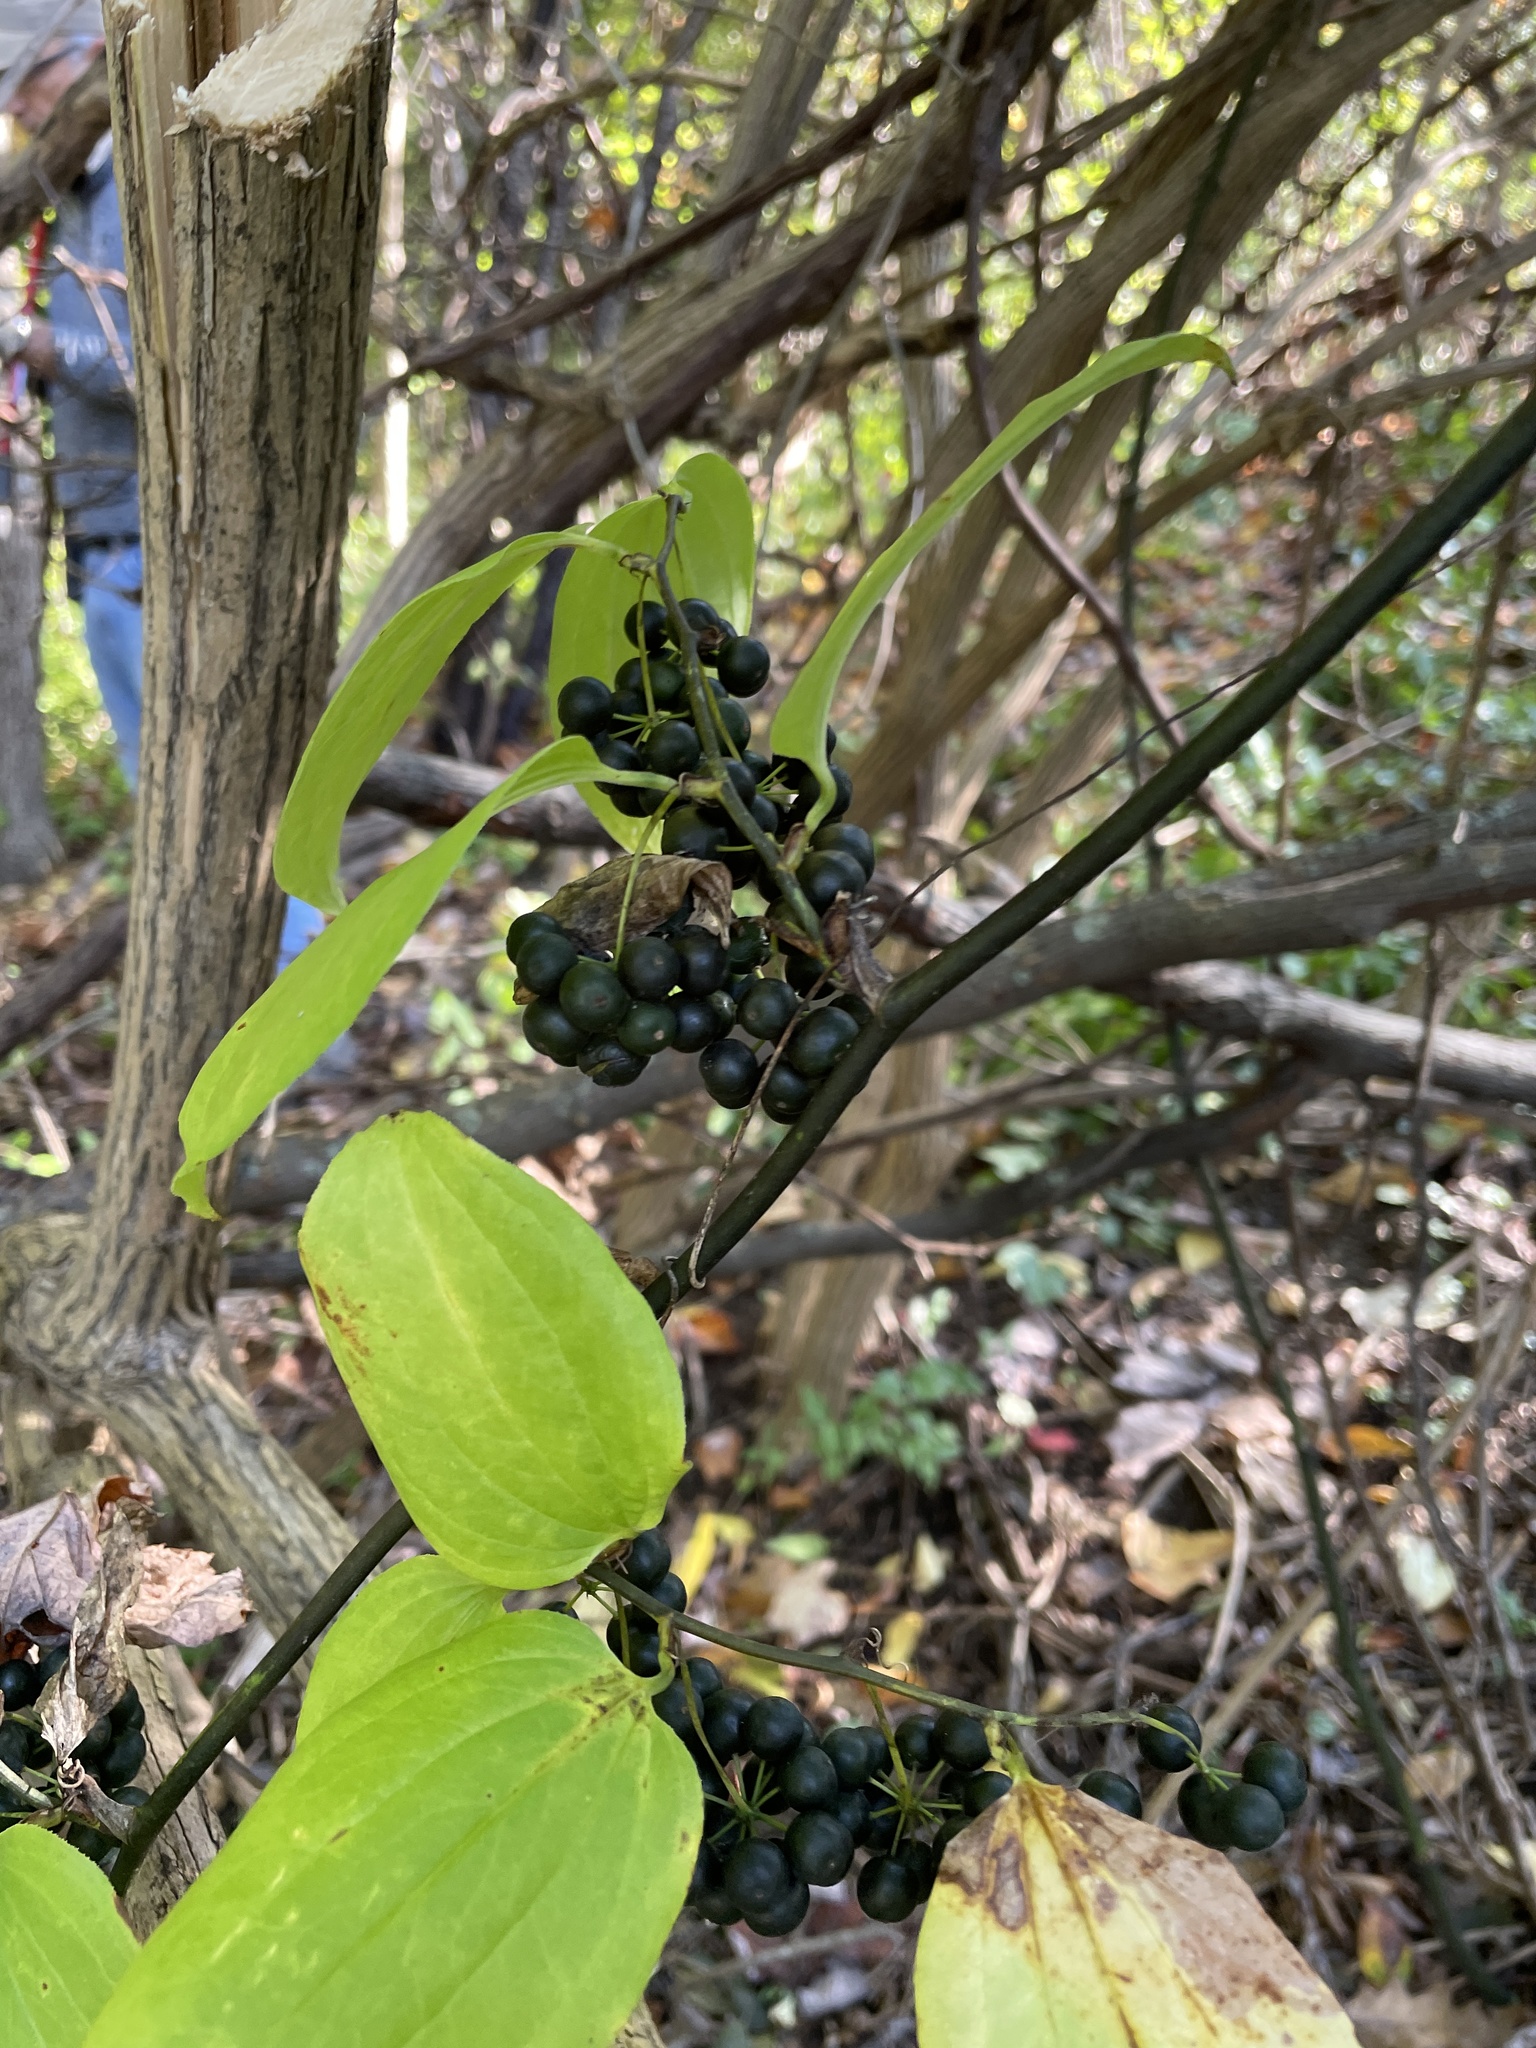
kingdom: Plantae
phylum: Tracheophyta
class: Liliopsida
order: Liliales
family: Smilacaceae
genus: Smilax
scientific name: Smilax tamnoides
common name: Hellfetter
